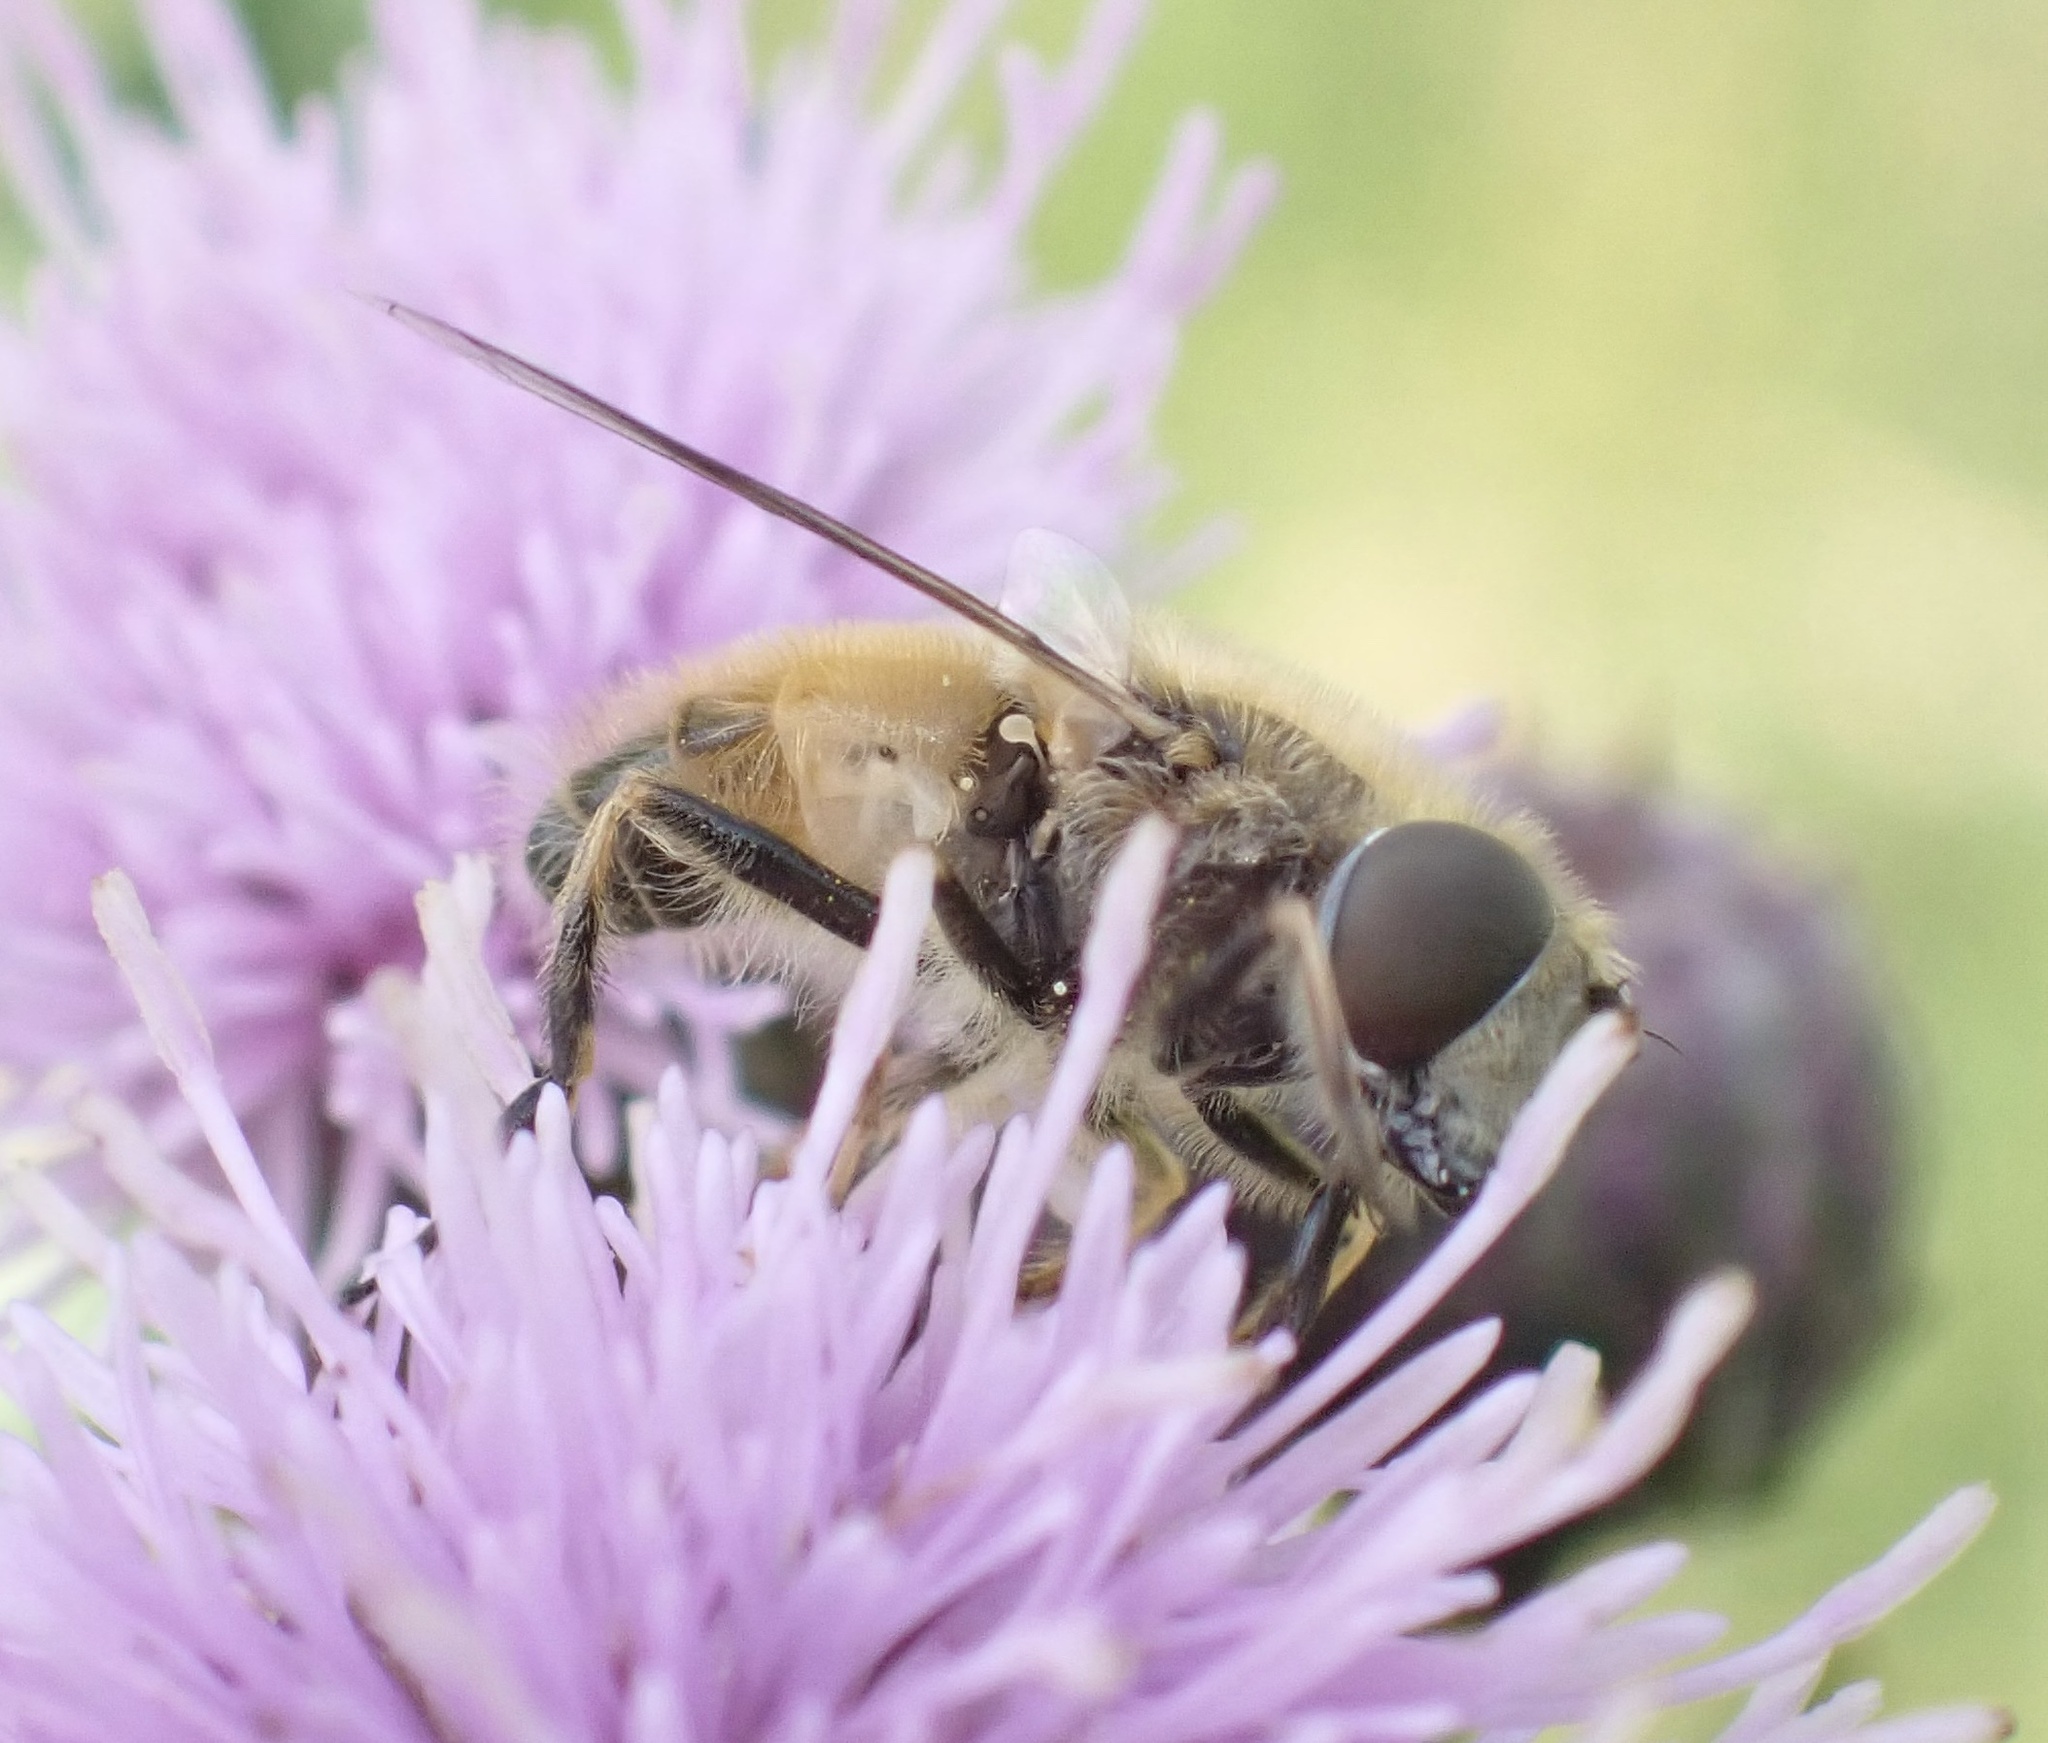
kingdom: Animalia
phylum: Arthropoda
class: Insecta
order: Diptera
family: Syrphidae
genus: Eristalis
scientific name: Eristalis abusivus
